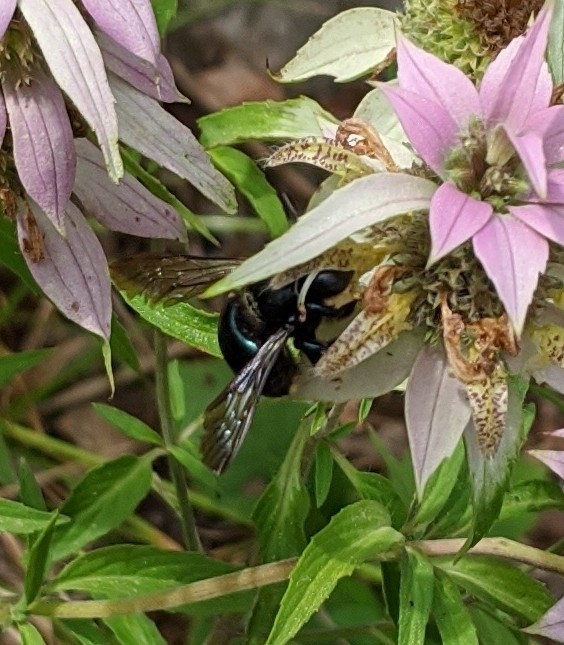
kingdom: Animalia
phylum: Arthropoda
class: Insecta
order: Hymenoptera
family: Apidae
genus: Xylocopa
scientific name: Xylocopa micans
